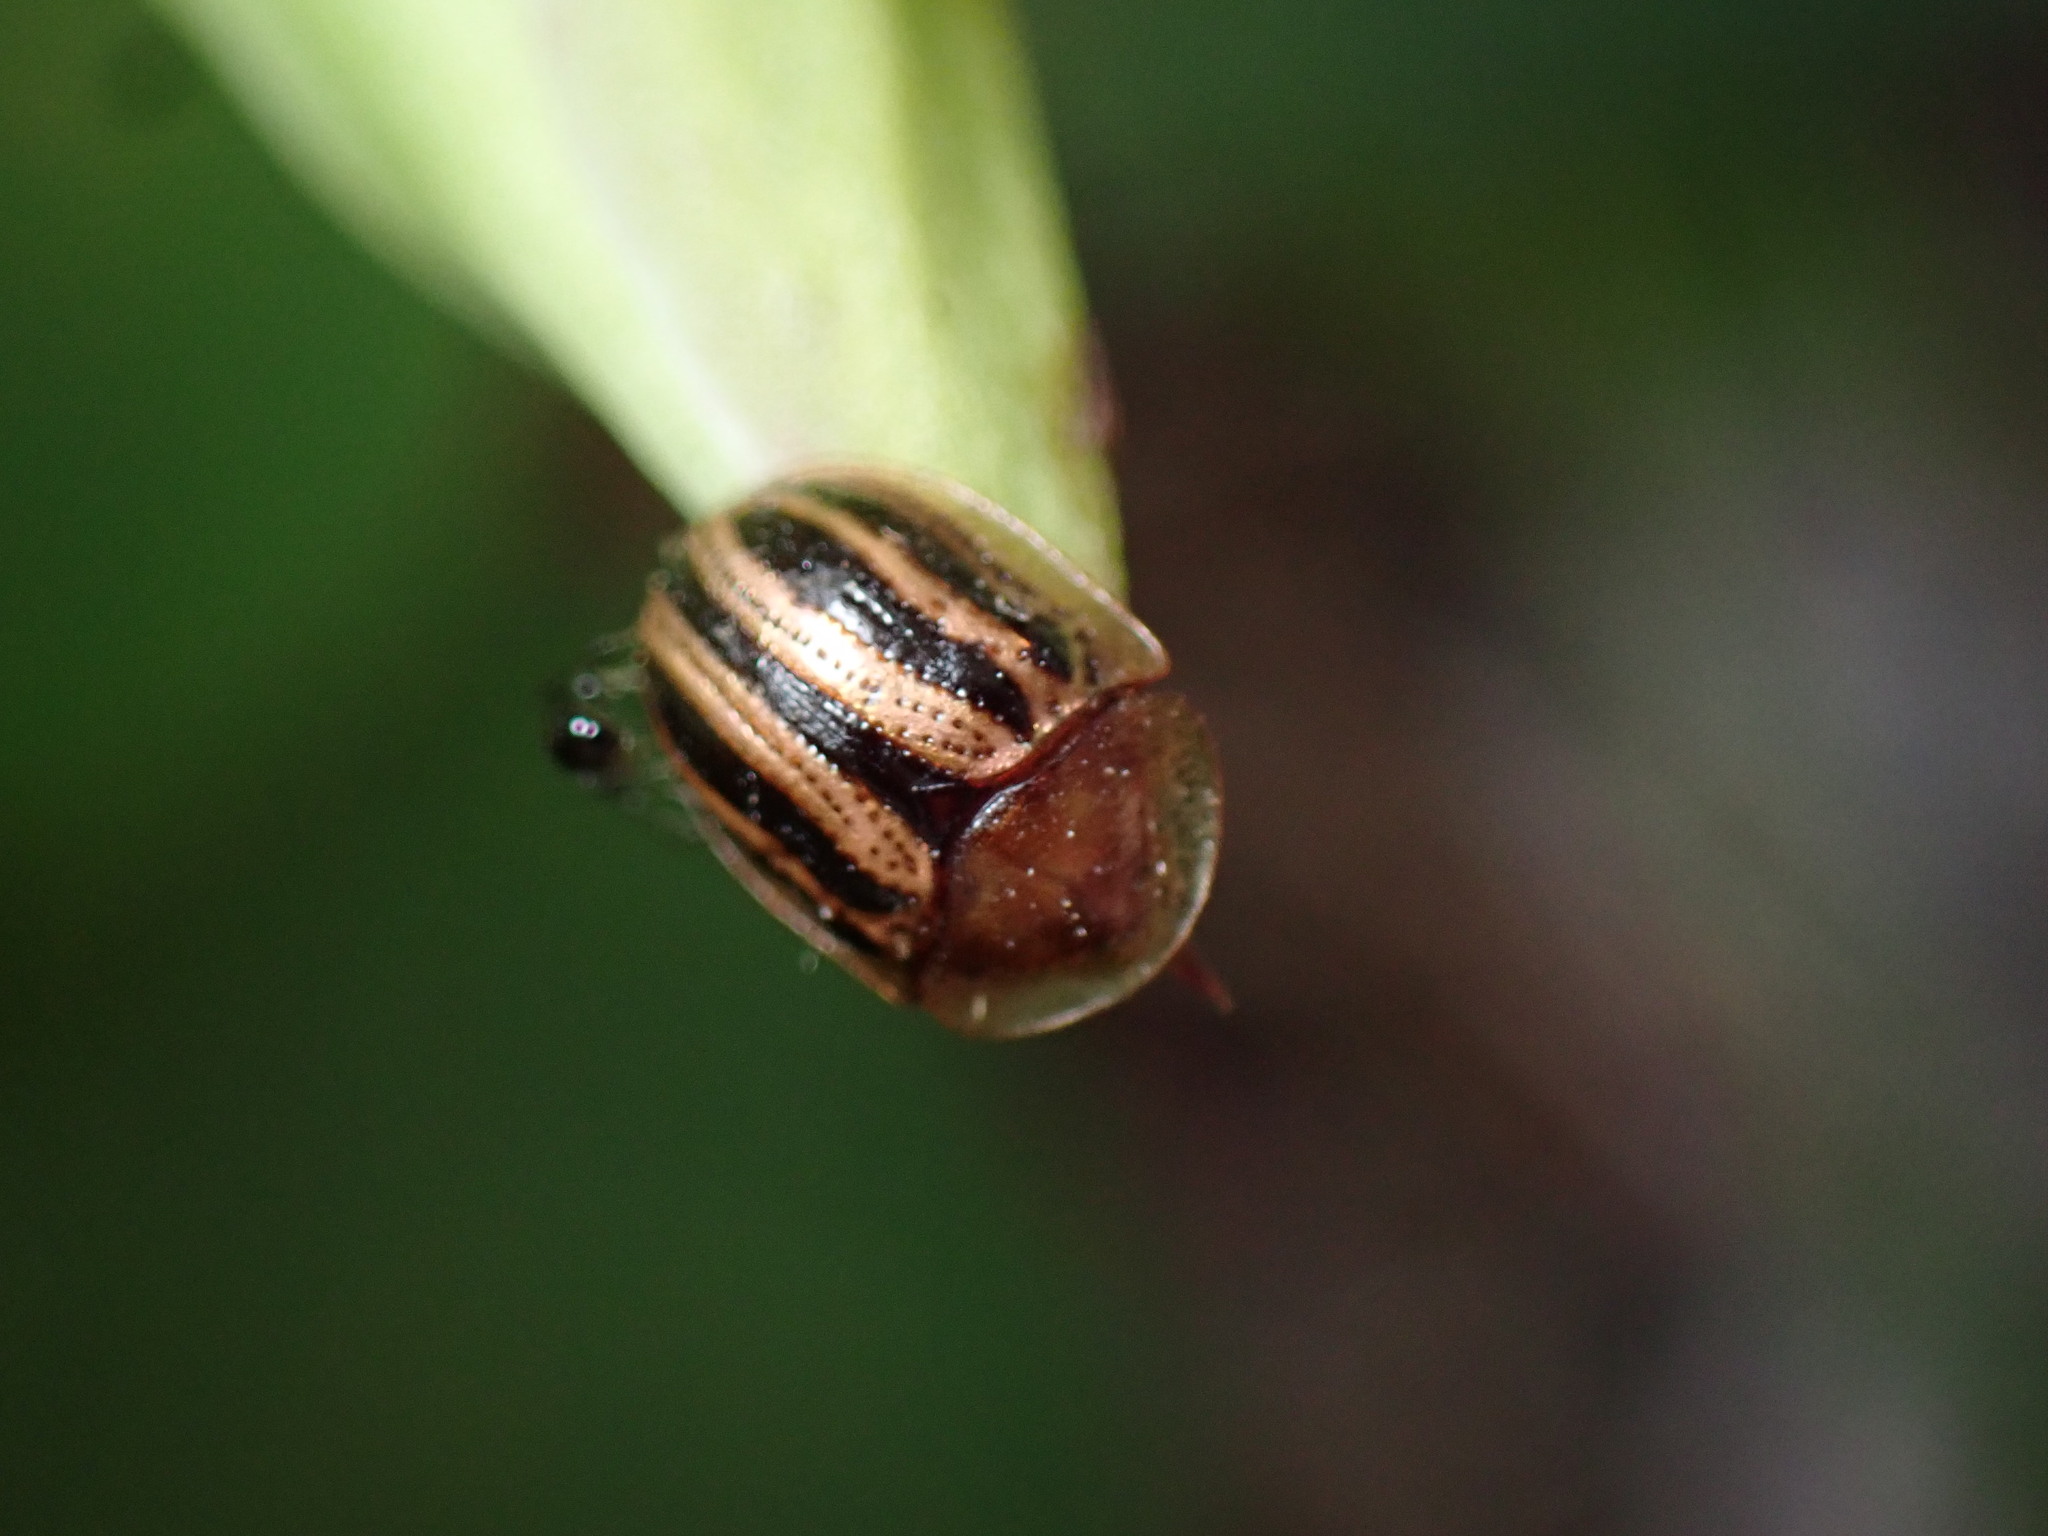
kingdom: Animalia
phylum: Arthropoda
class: Insecta
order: Coleoptera
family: Chrysomelidae
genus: Agroiconota
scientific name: Agroiconota bivittata
